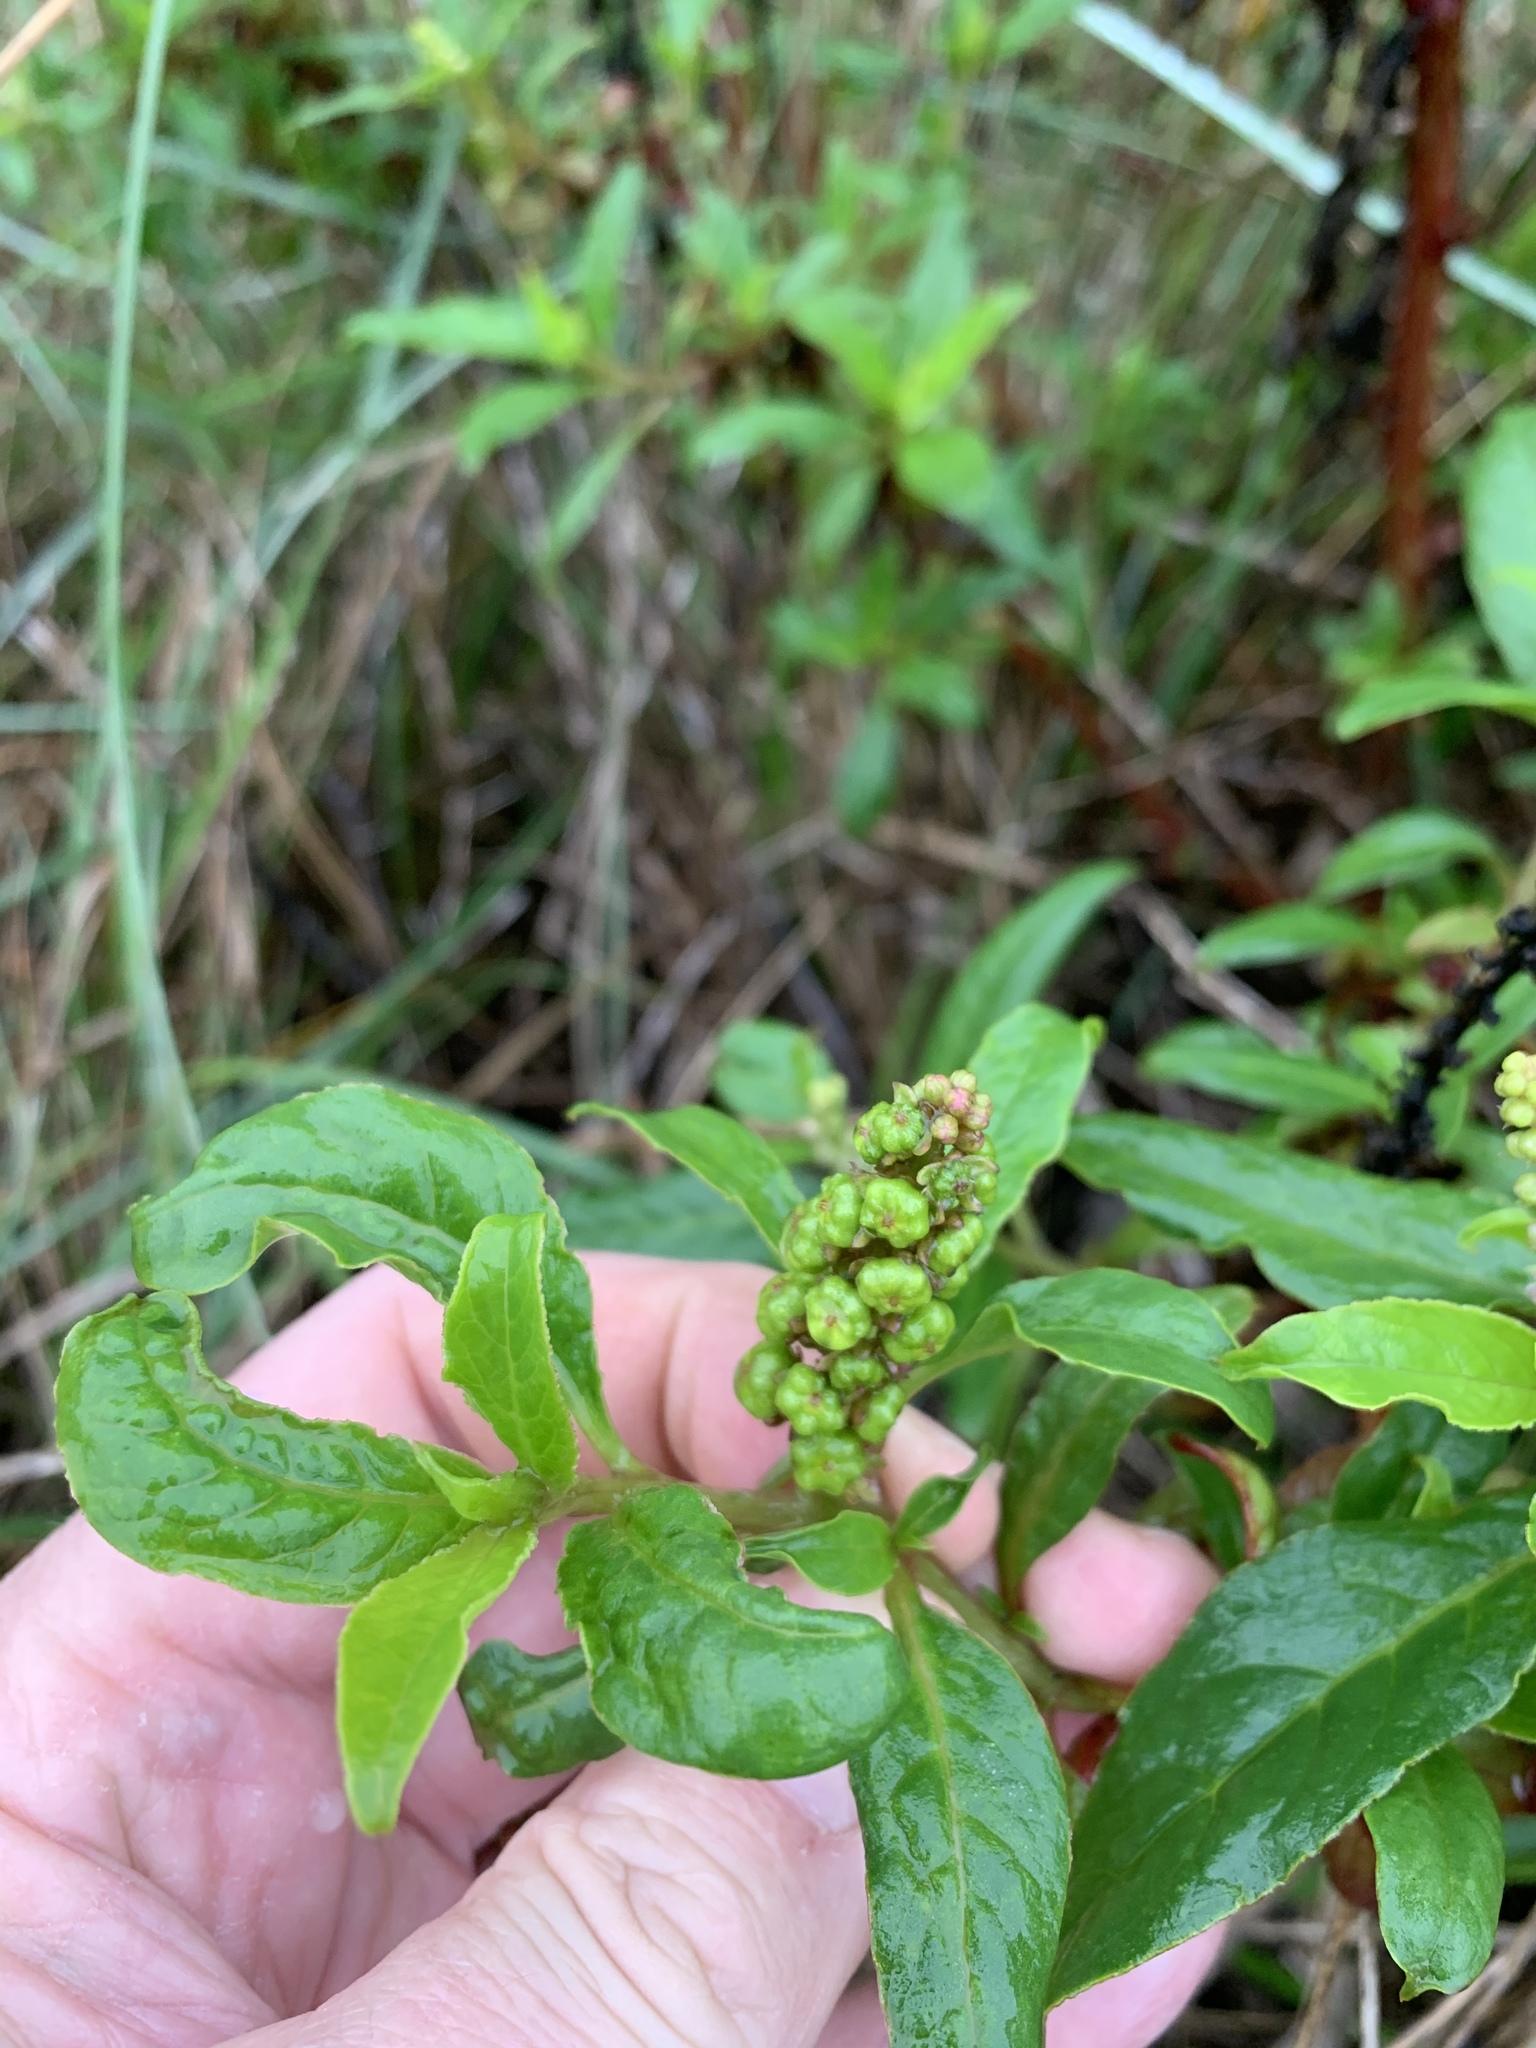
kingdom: Plantae
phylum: Tracheophyta
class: Magnoliopsida
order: Caryophyllales
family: Phytolaccaceae
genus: Phytolacca
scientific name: Phytolacca icosandra
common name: Button pokeweed
